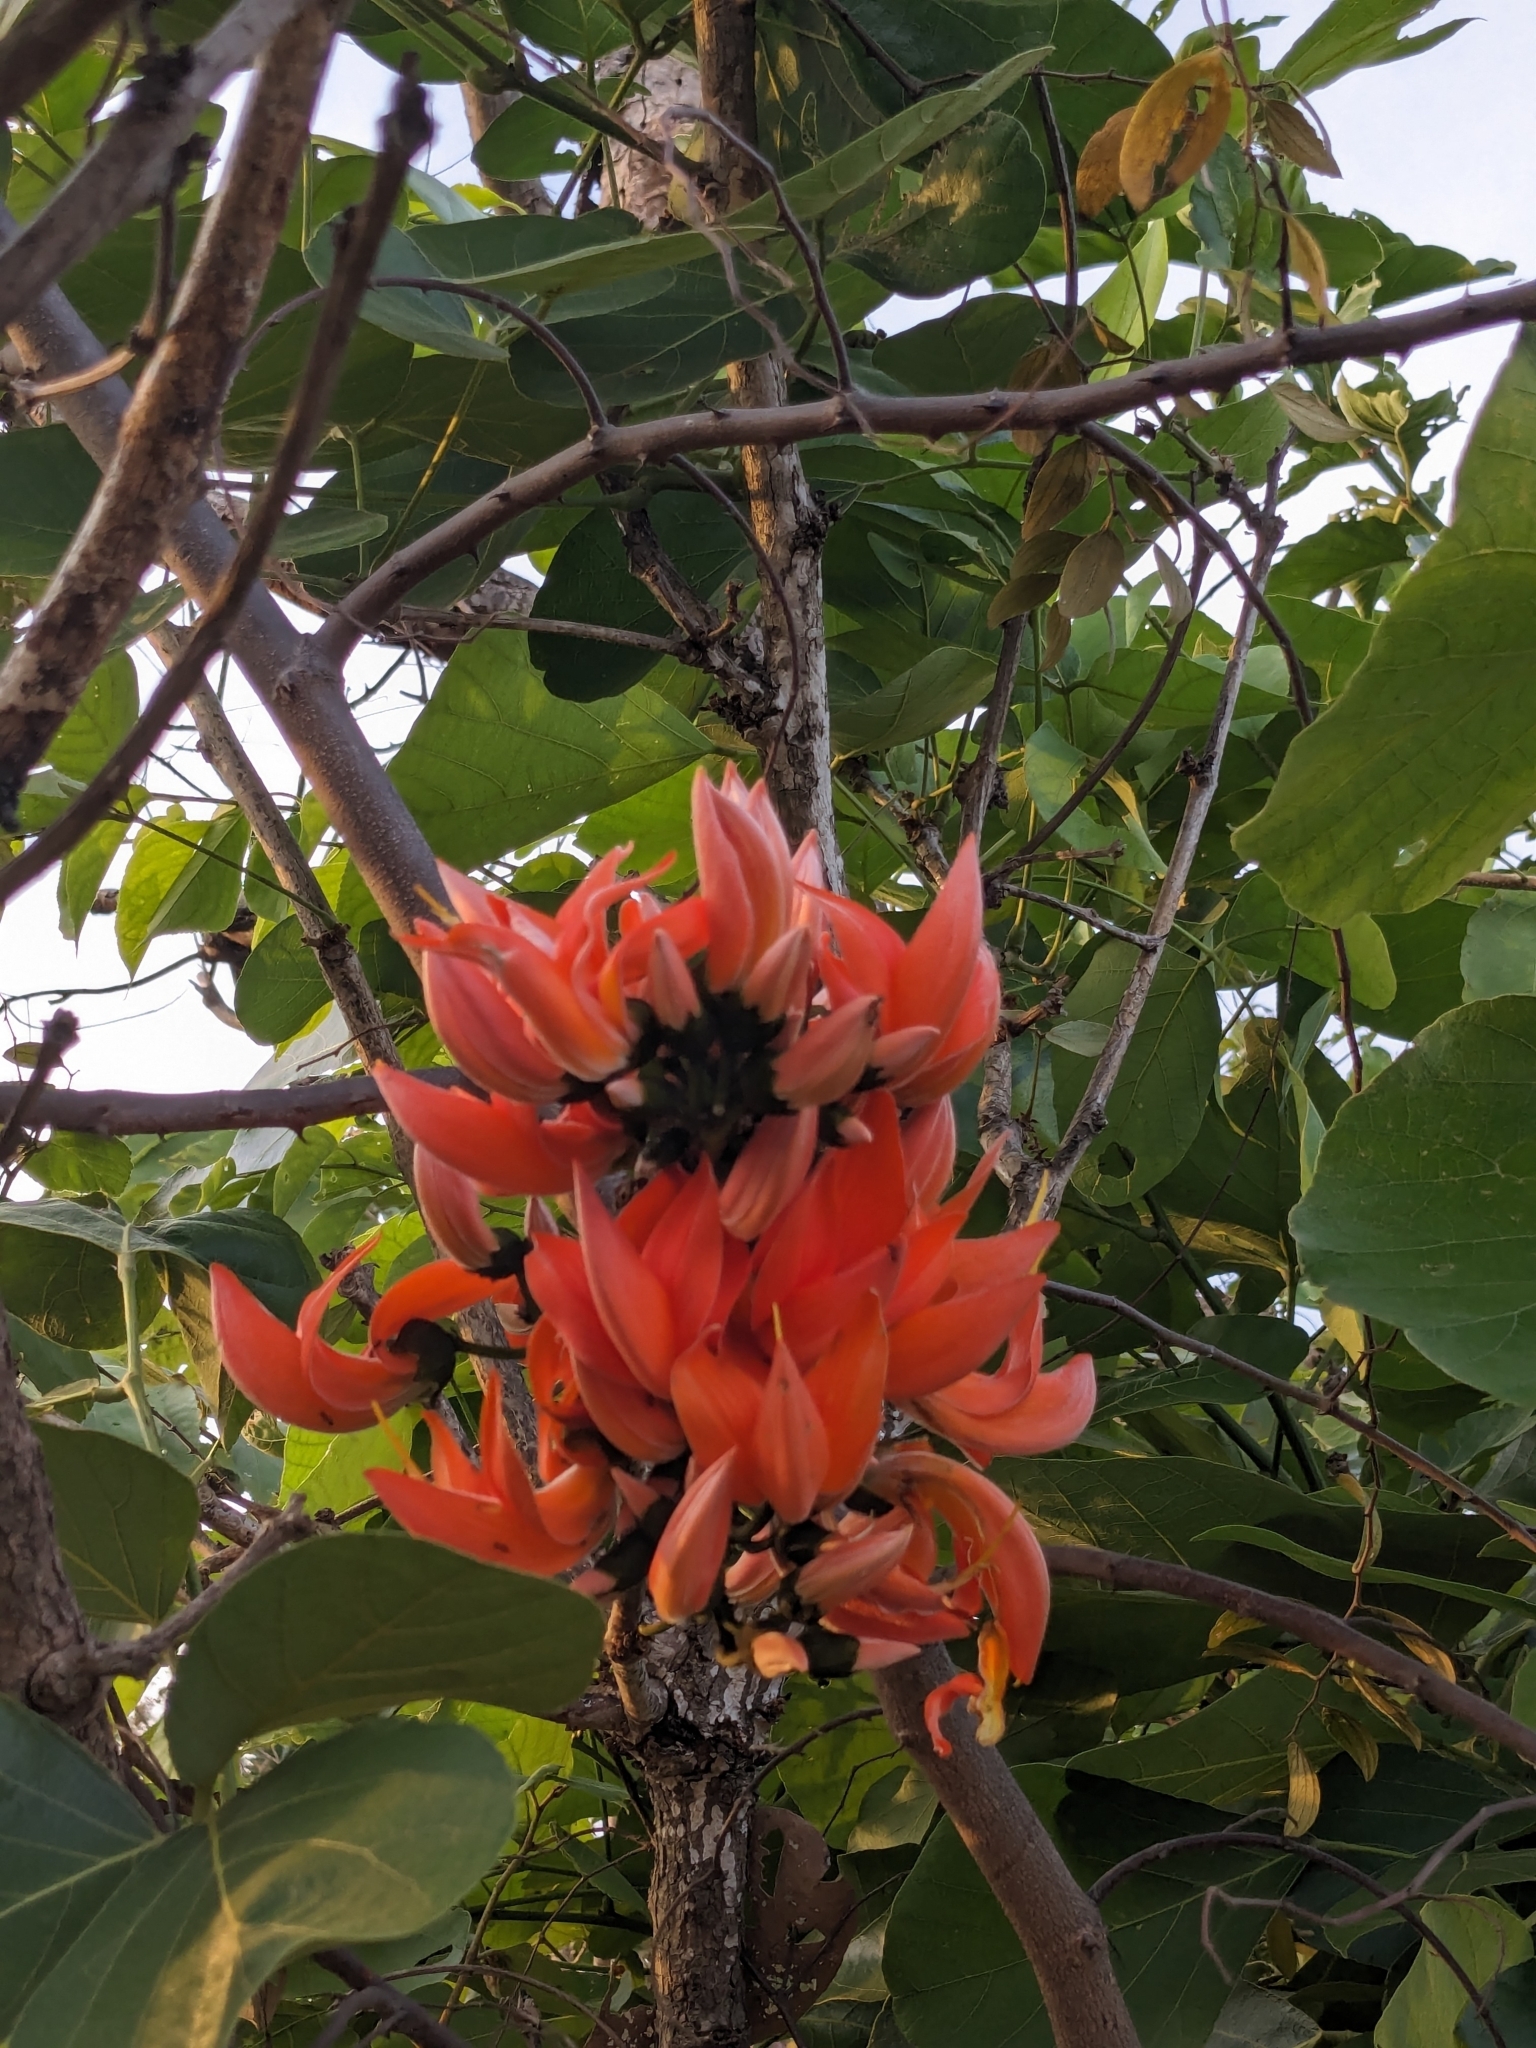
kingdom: Plantae
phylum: Tracheophyta
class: Magnoliopsida
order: Fabales
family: Fabaceae
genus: Butea
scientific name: Butea monosperma
